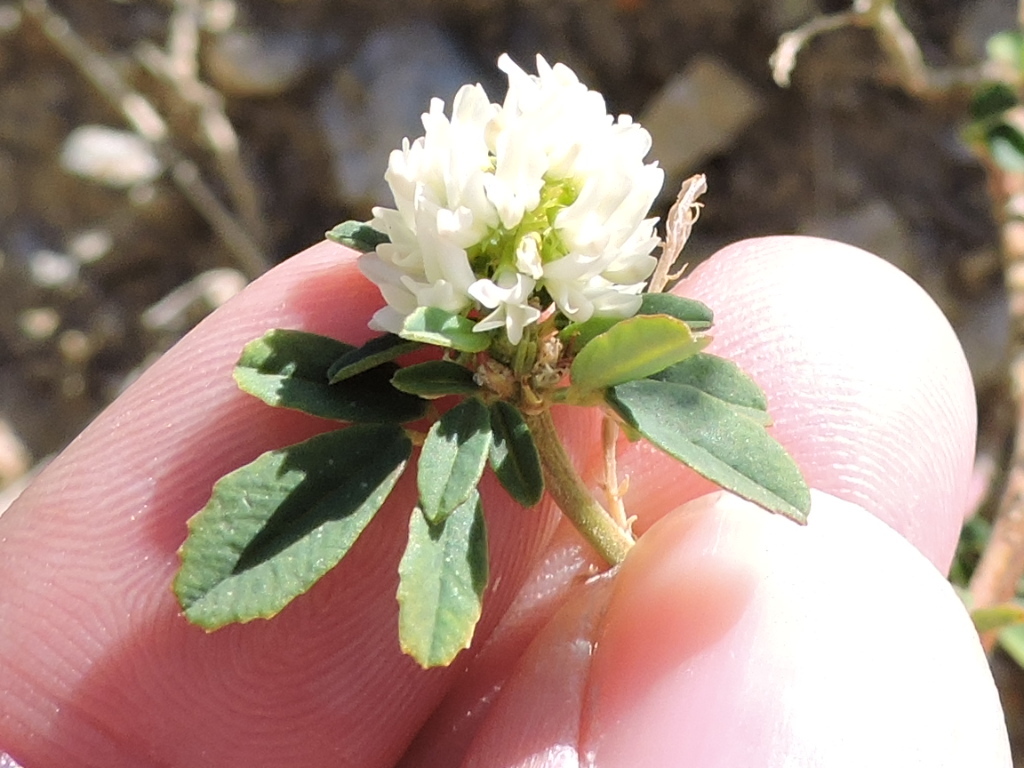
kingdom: Plantae
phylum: Tracheophyta
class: Magnoliopsida
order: Fabales
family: Fabaceae
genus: Melilotus
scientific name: Melilotus albus
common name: White melilot
